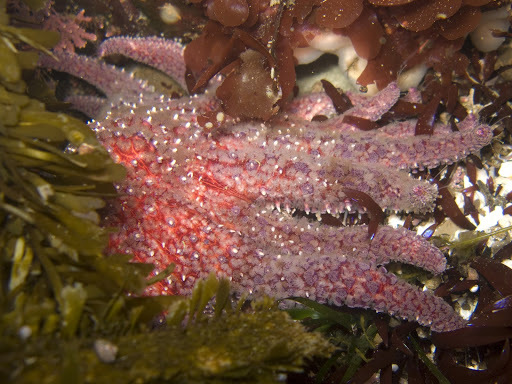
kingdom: Animalia
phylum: Echinodermata
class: Asteroidea
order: Forcipulatida
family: Asteriidae
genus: Pycnopodia
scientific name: Pycnopodia helianthoides
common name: Rag mop
